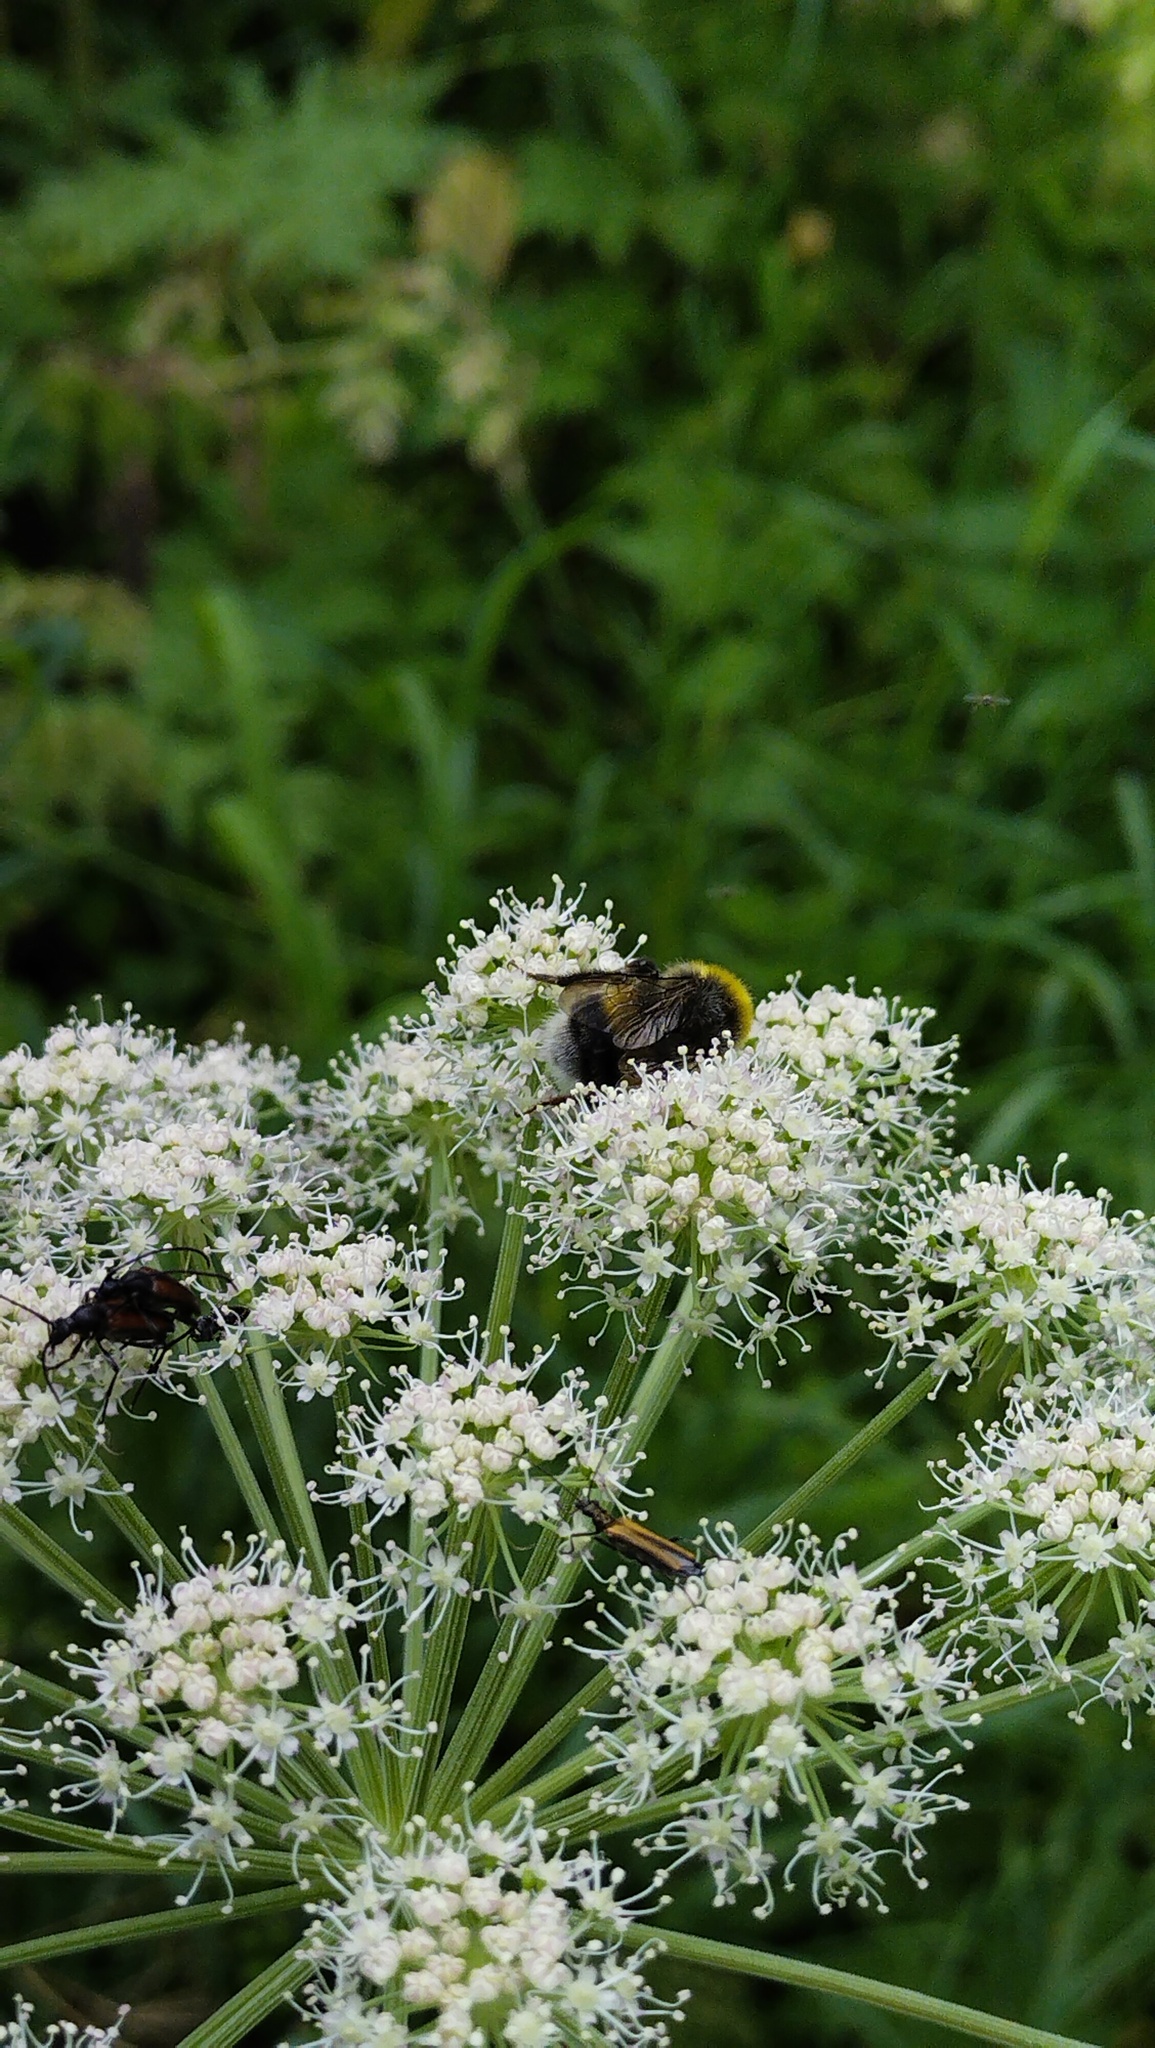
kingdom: Animalia
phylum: Arthropoda
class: Insecta
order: Hymenoptera
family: Apidae
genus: Bombus
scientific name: Bombus
